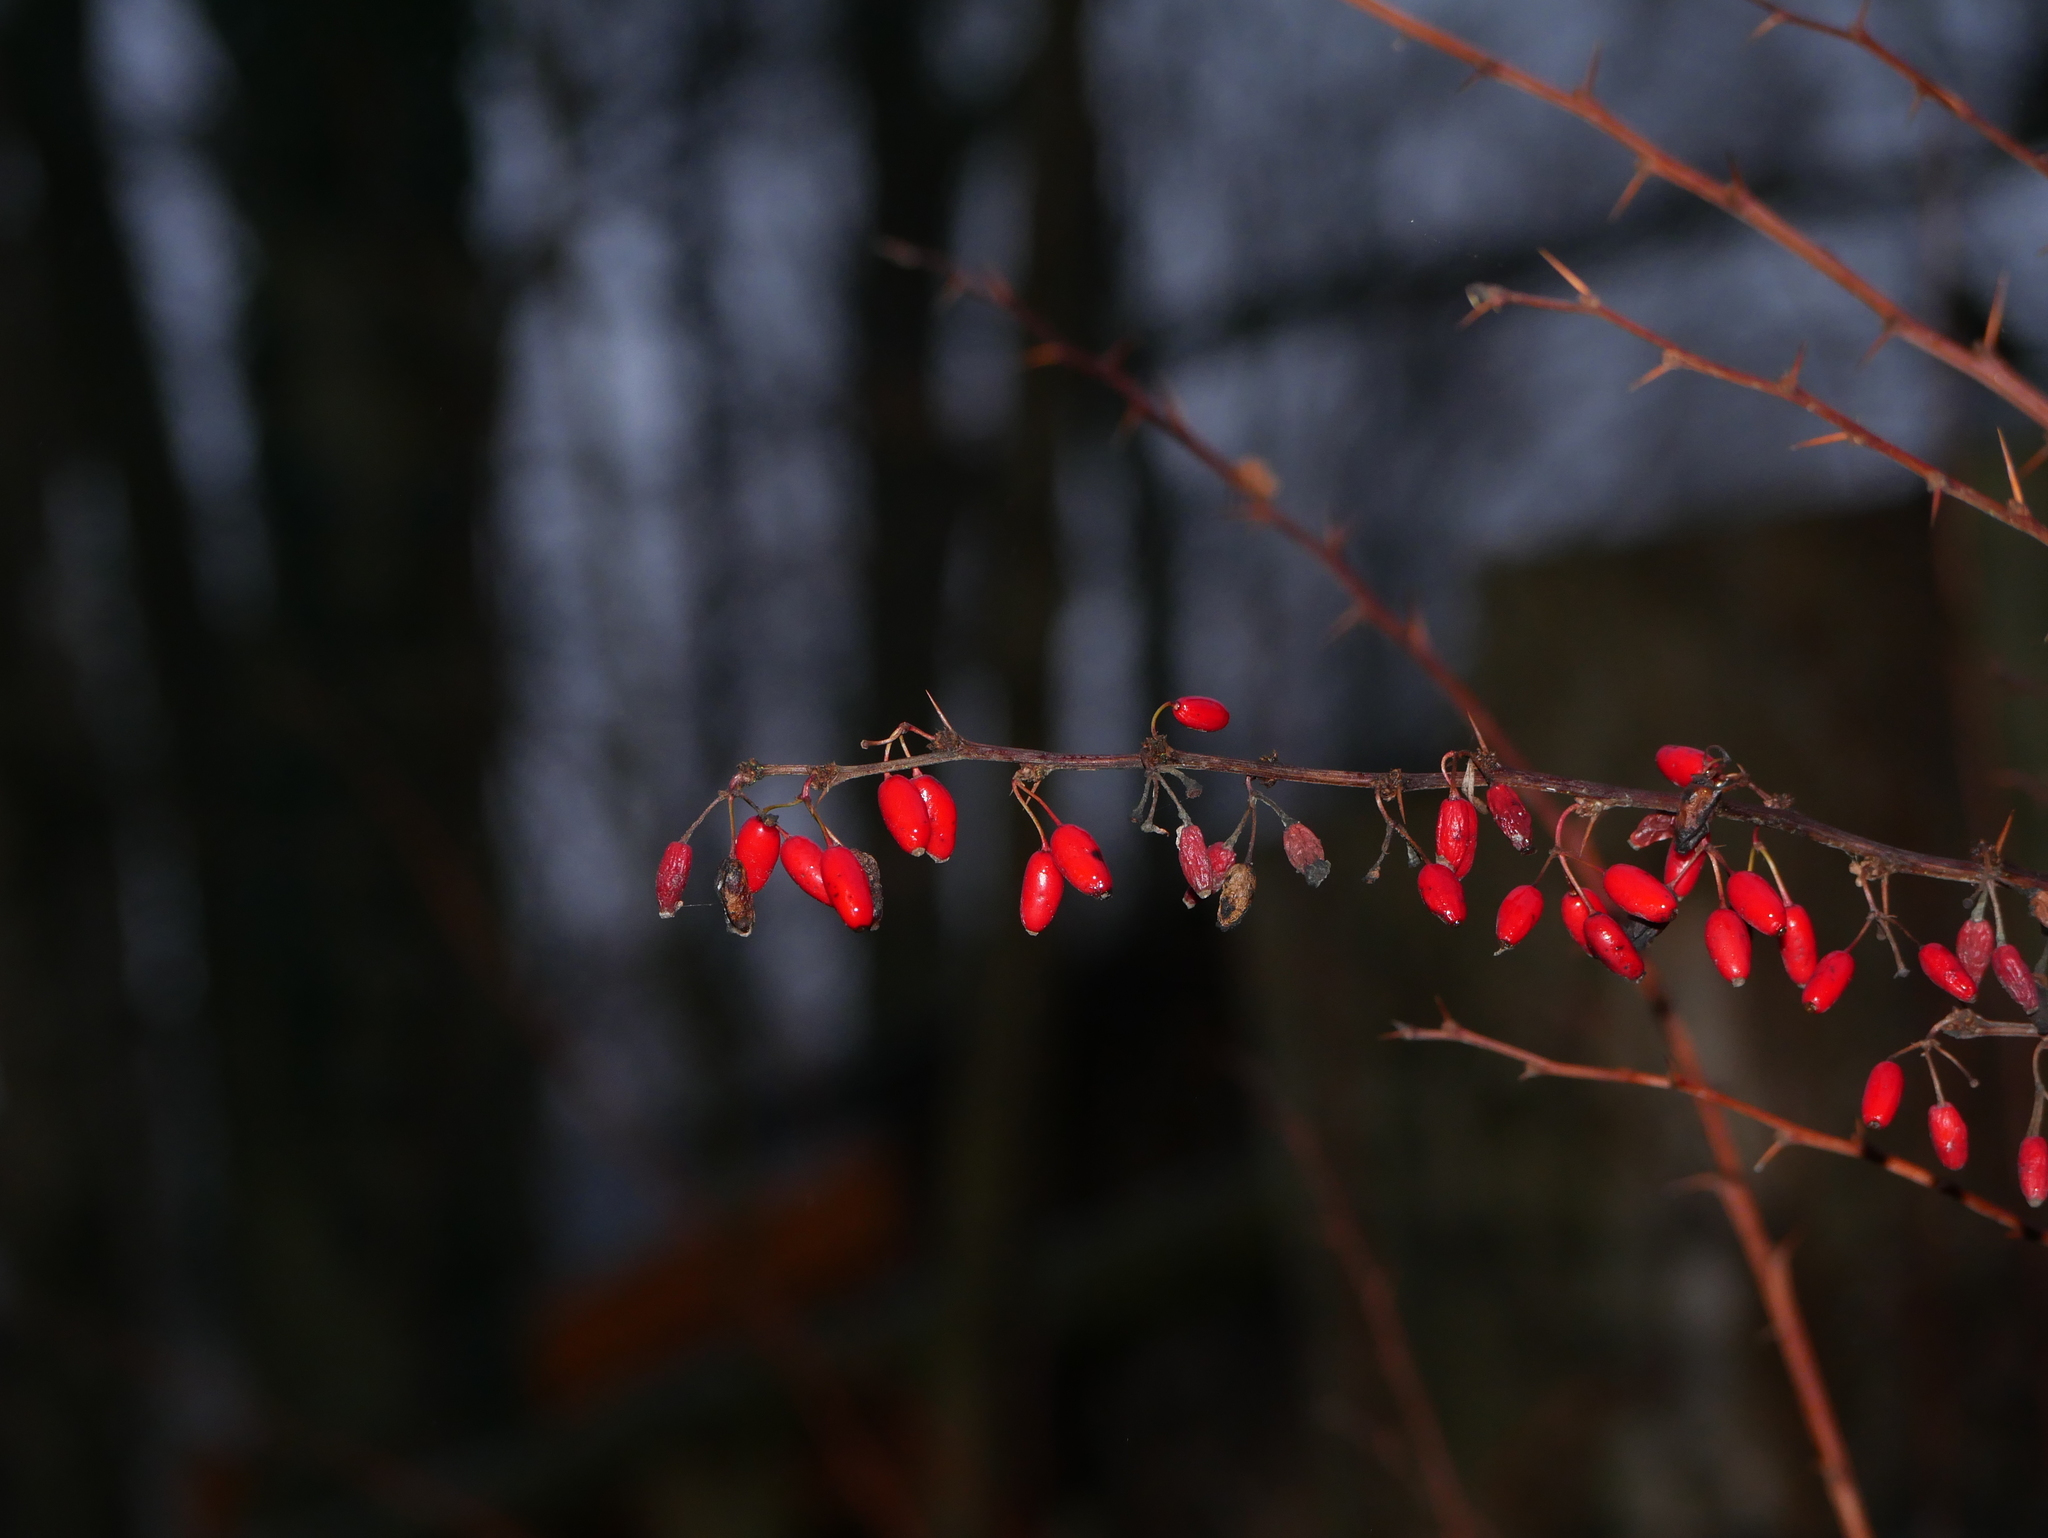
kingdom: Plantae
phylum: Tracheophyta
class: Magnoliopsida
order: Ranunculales
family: Berberidaceae
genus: Berberis
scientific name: Berberis vulgaris
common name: Barberry
